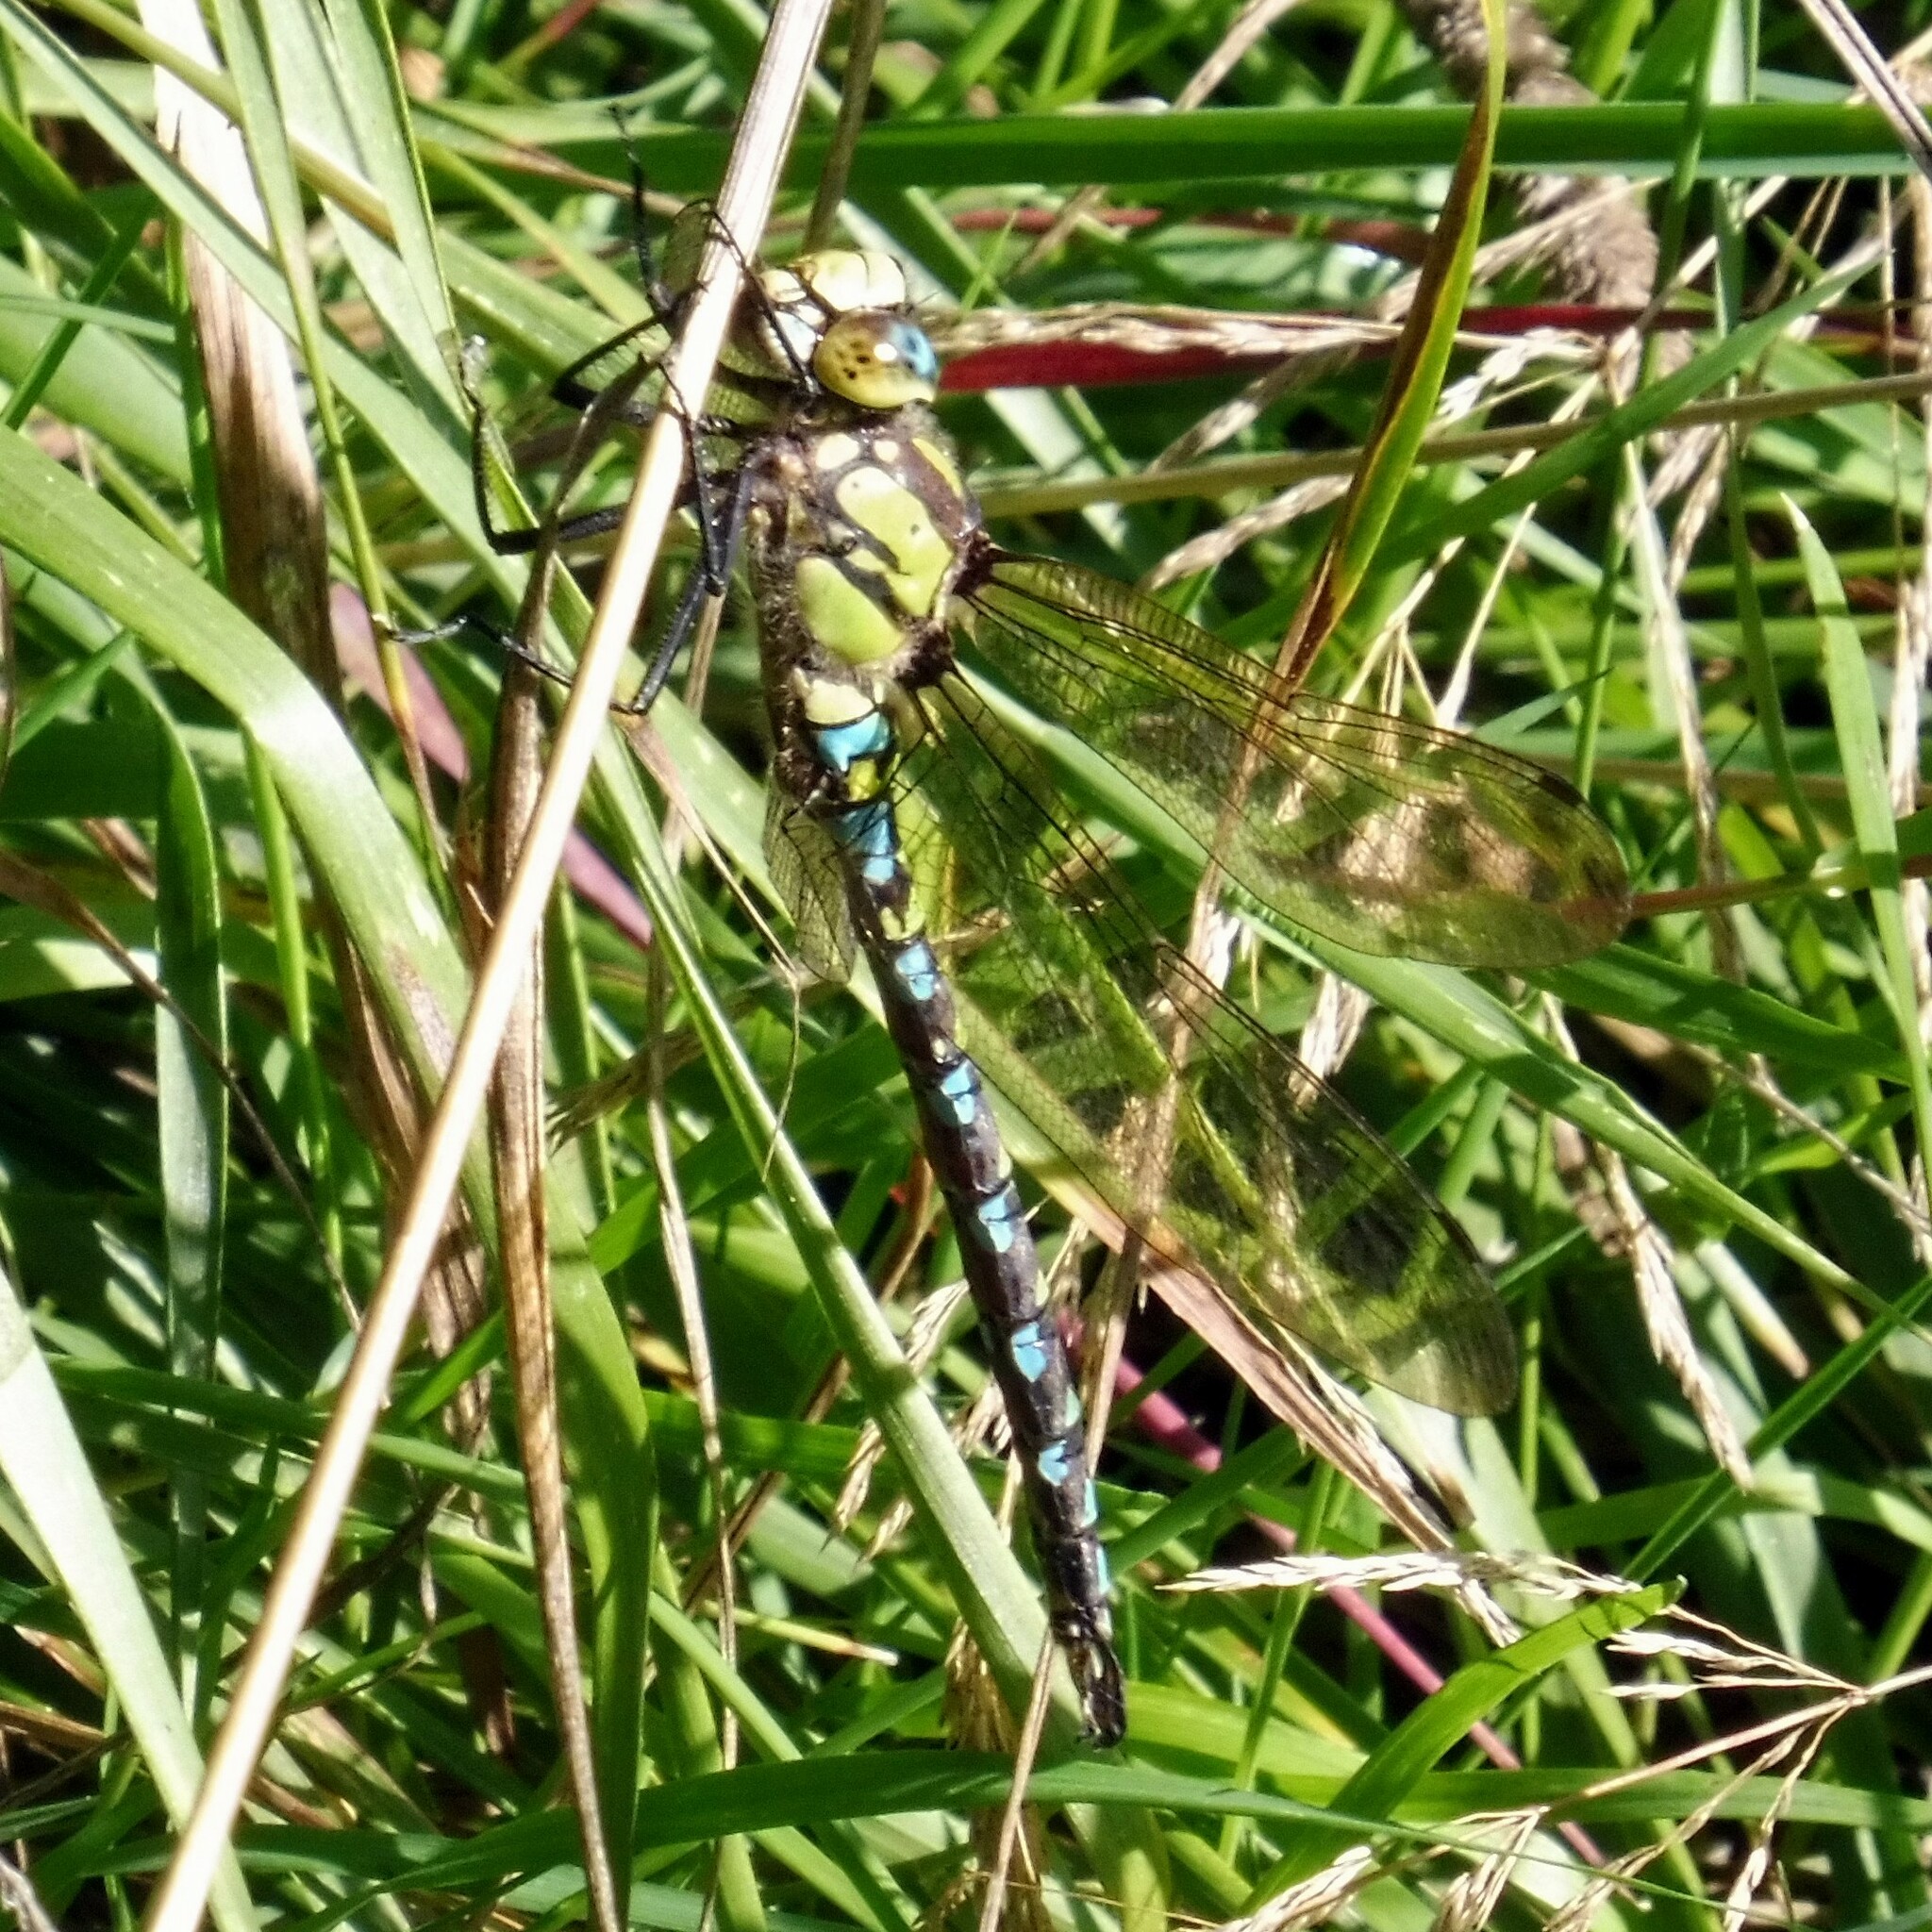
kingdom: Animalia
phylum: Arthropoda
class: Insecta
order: Odonata
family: Aeshnidae
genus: Aeshna
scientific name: Aeshna cyanea
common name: Southern hawker
